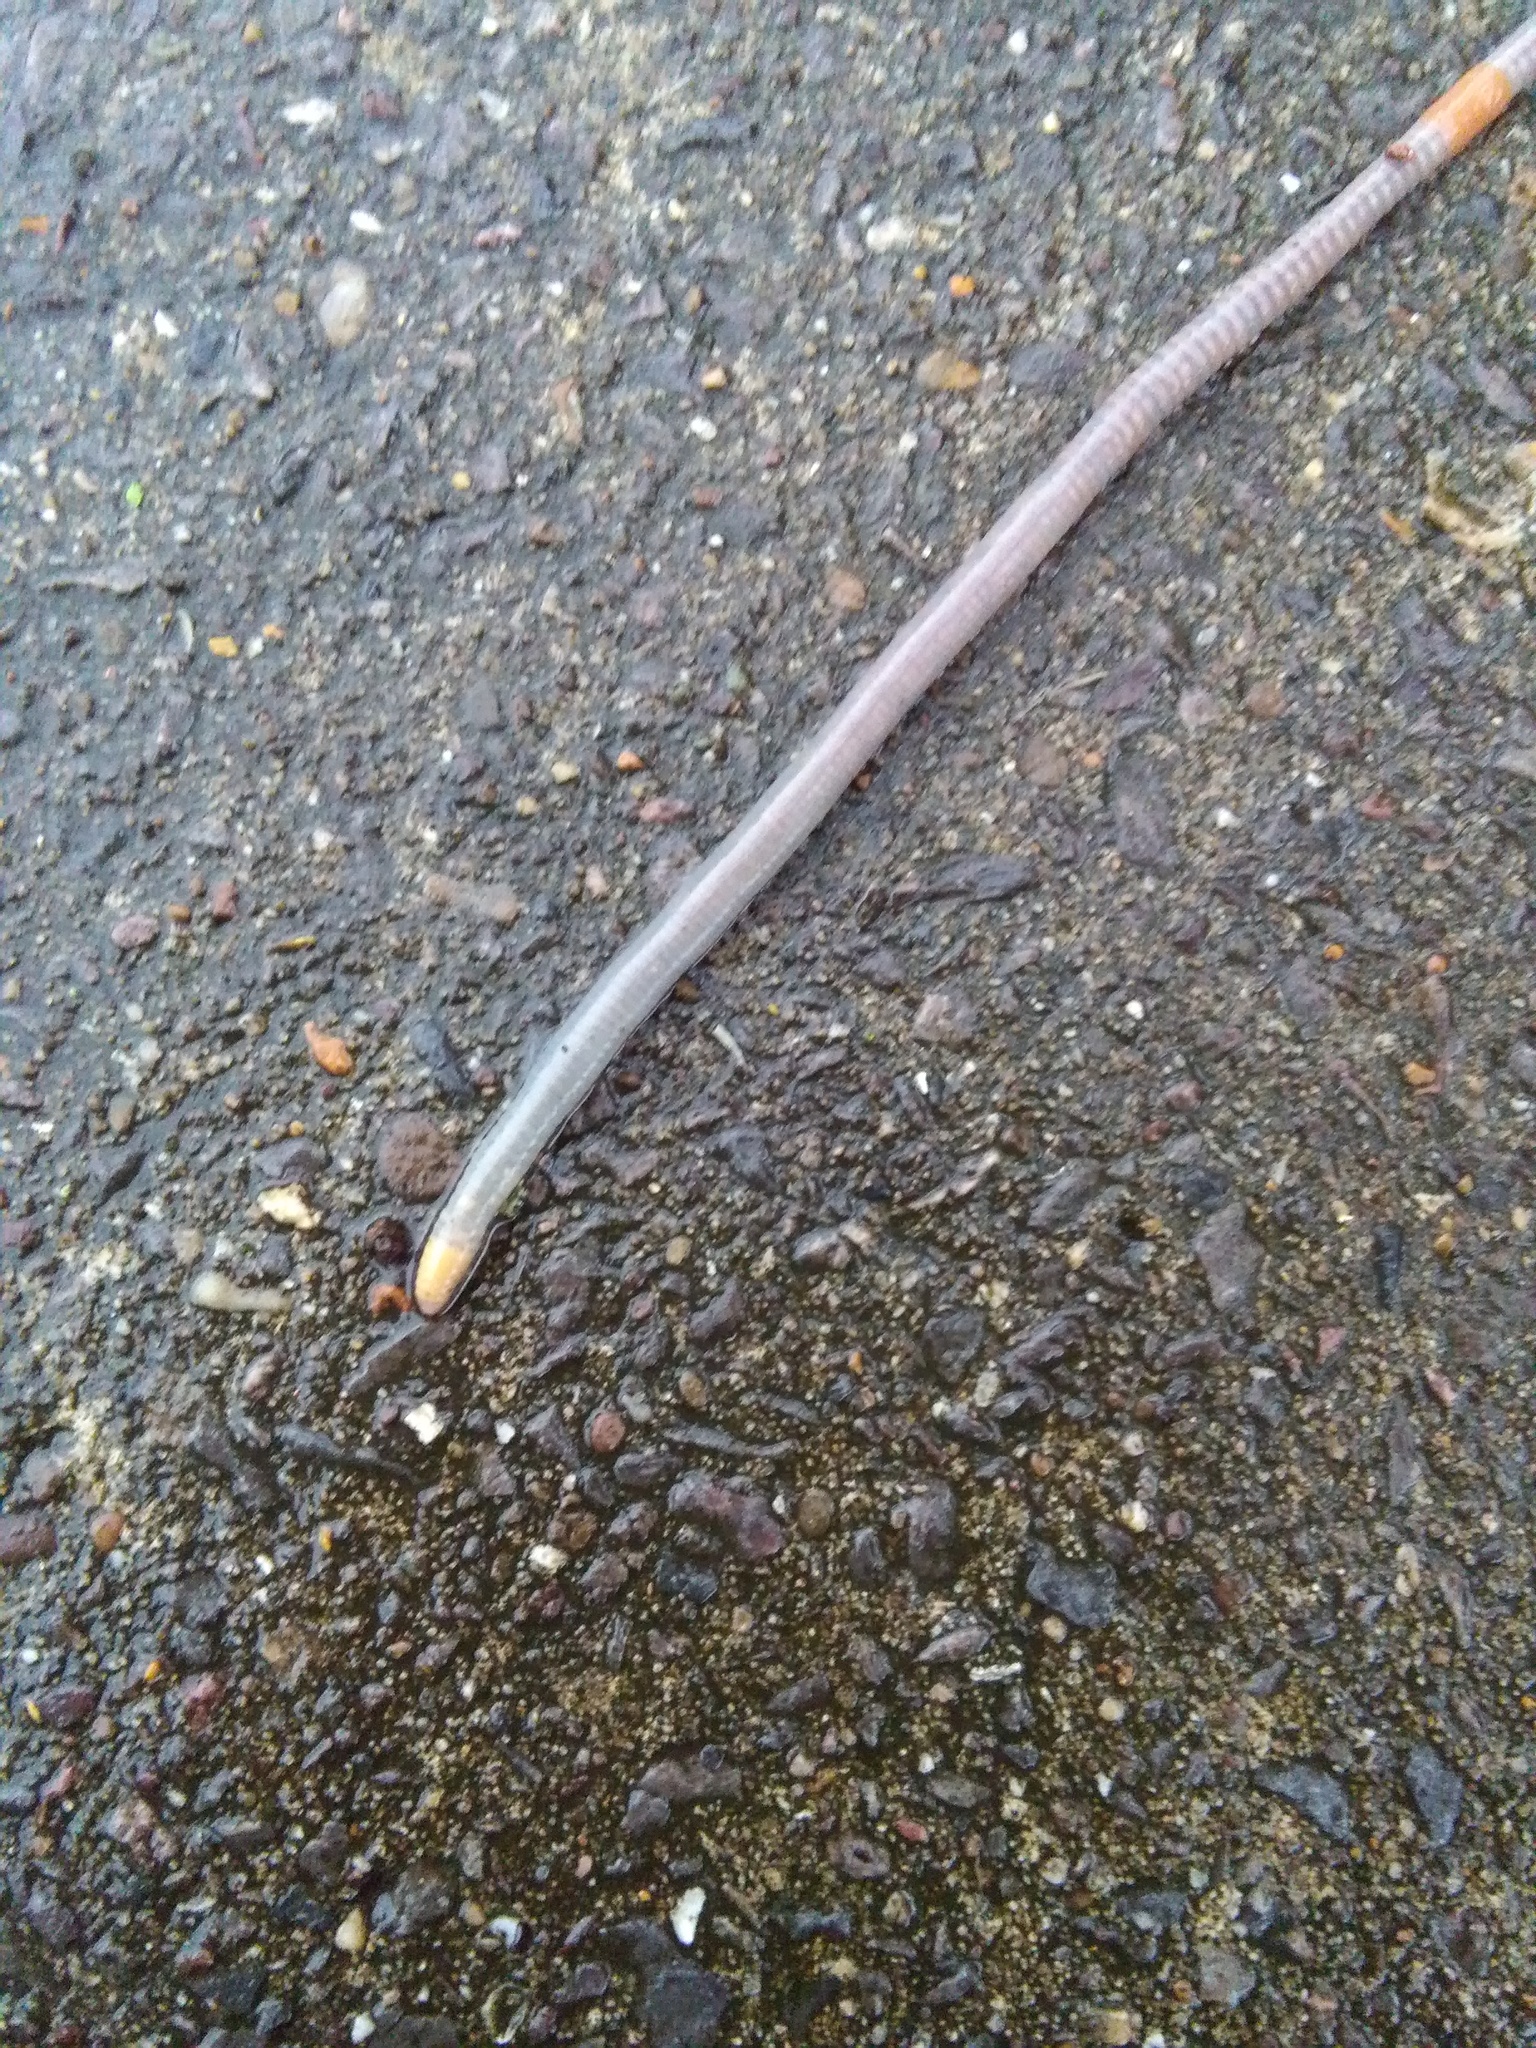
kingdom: Animalia
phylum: Annelida
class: Clitellata
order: Crassiclitellata
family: Lumbricidae
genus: Octolasion
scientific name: Octolasion cyaneum
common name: Woodland blue worm
